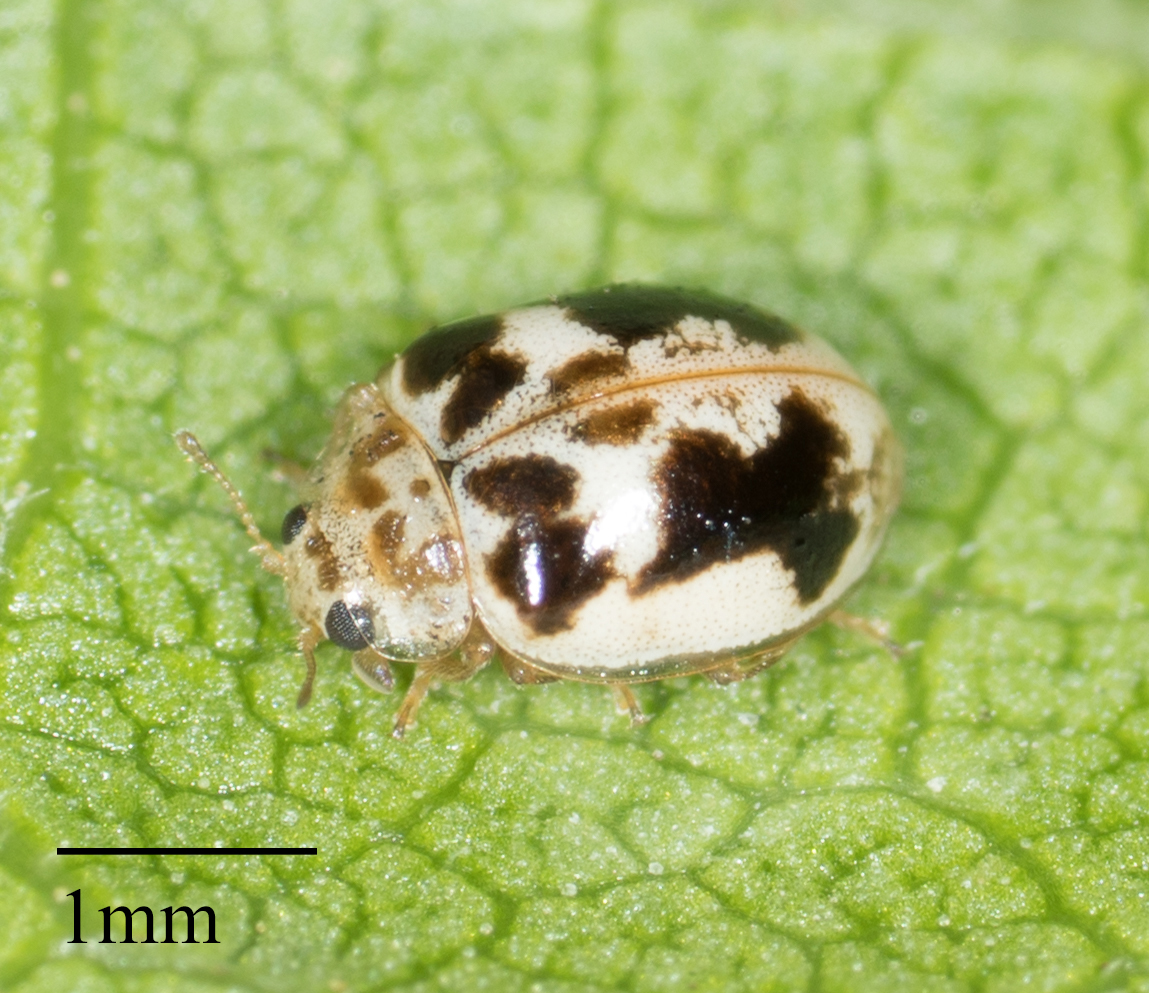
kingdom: Animalia
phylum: Arthropoda
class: Insecta
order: Coleoptera
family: Coccinellidae
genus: Psyllobora
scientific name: Psyllobora renifer
